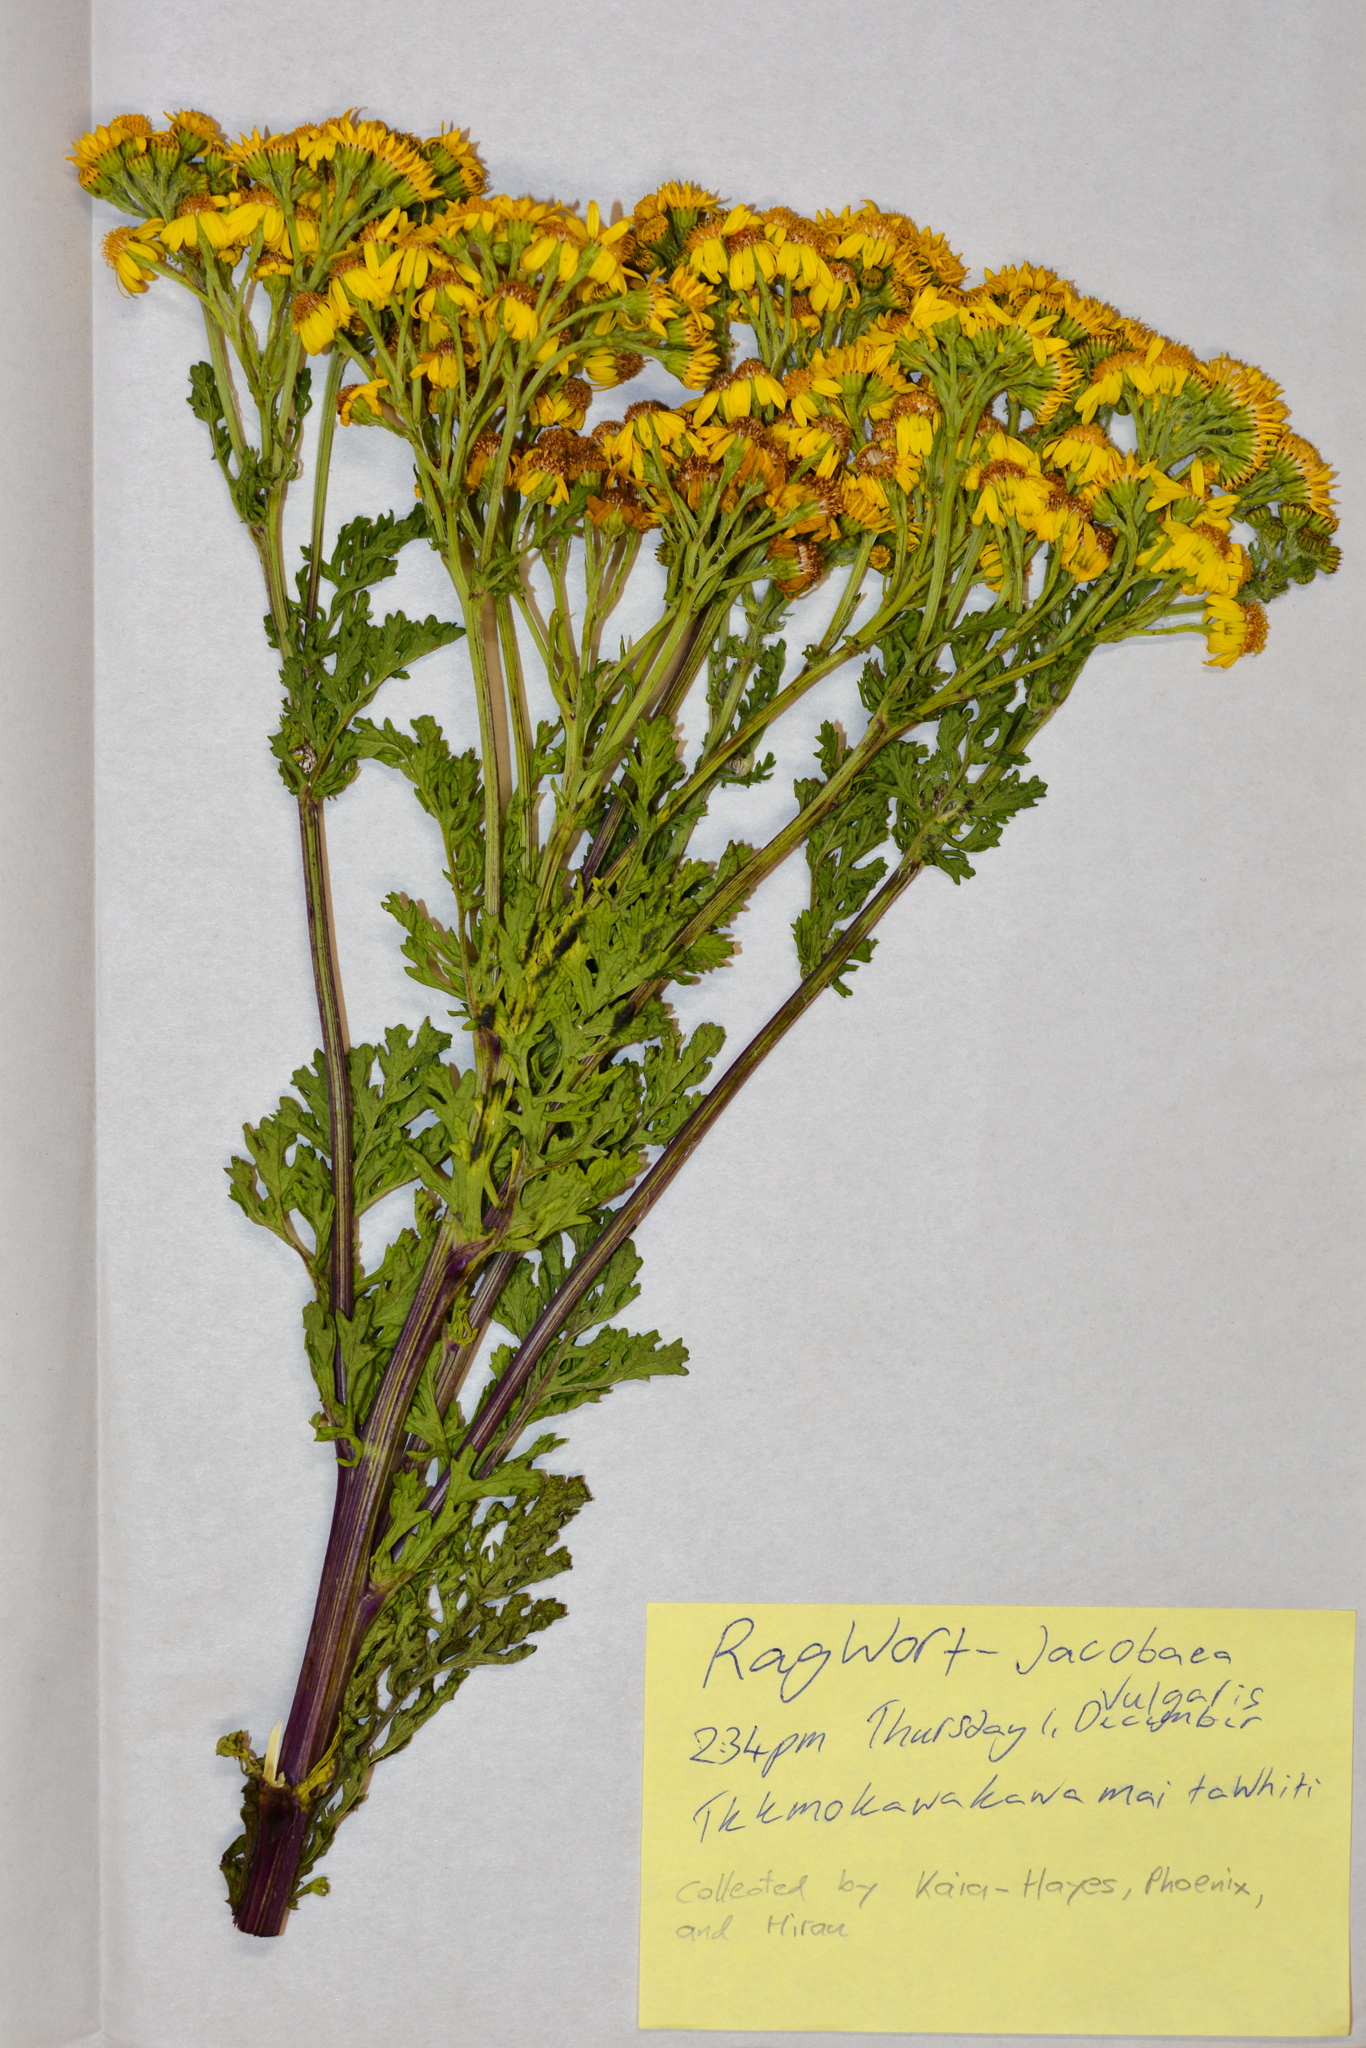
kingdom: Plantae
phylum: Tracheophyta
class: Magnoliopsida
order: Asterales
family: Asteraceae
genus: Jacobaea
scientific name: Jacobaea vulgaris
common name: Stinking willie
